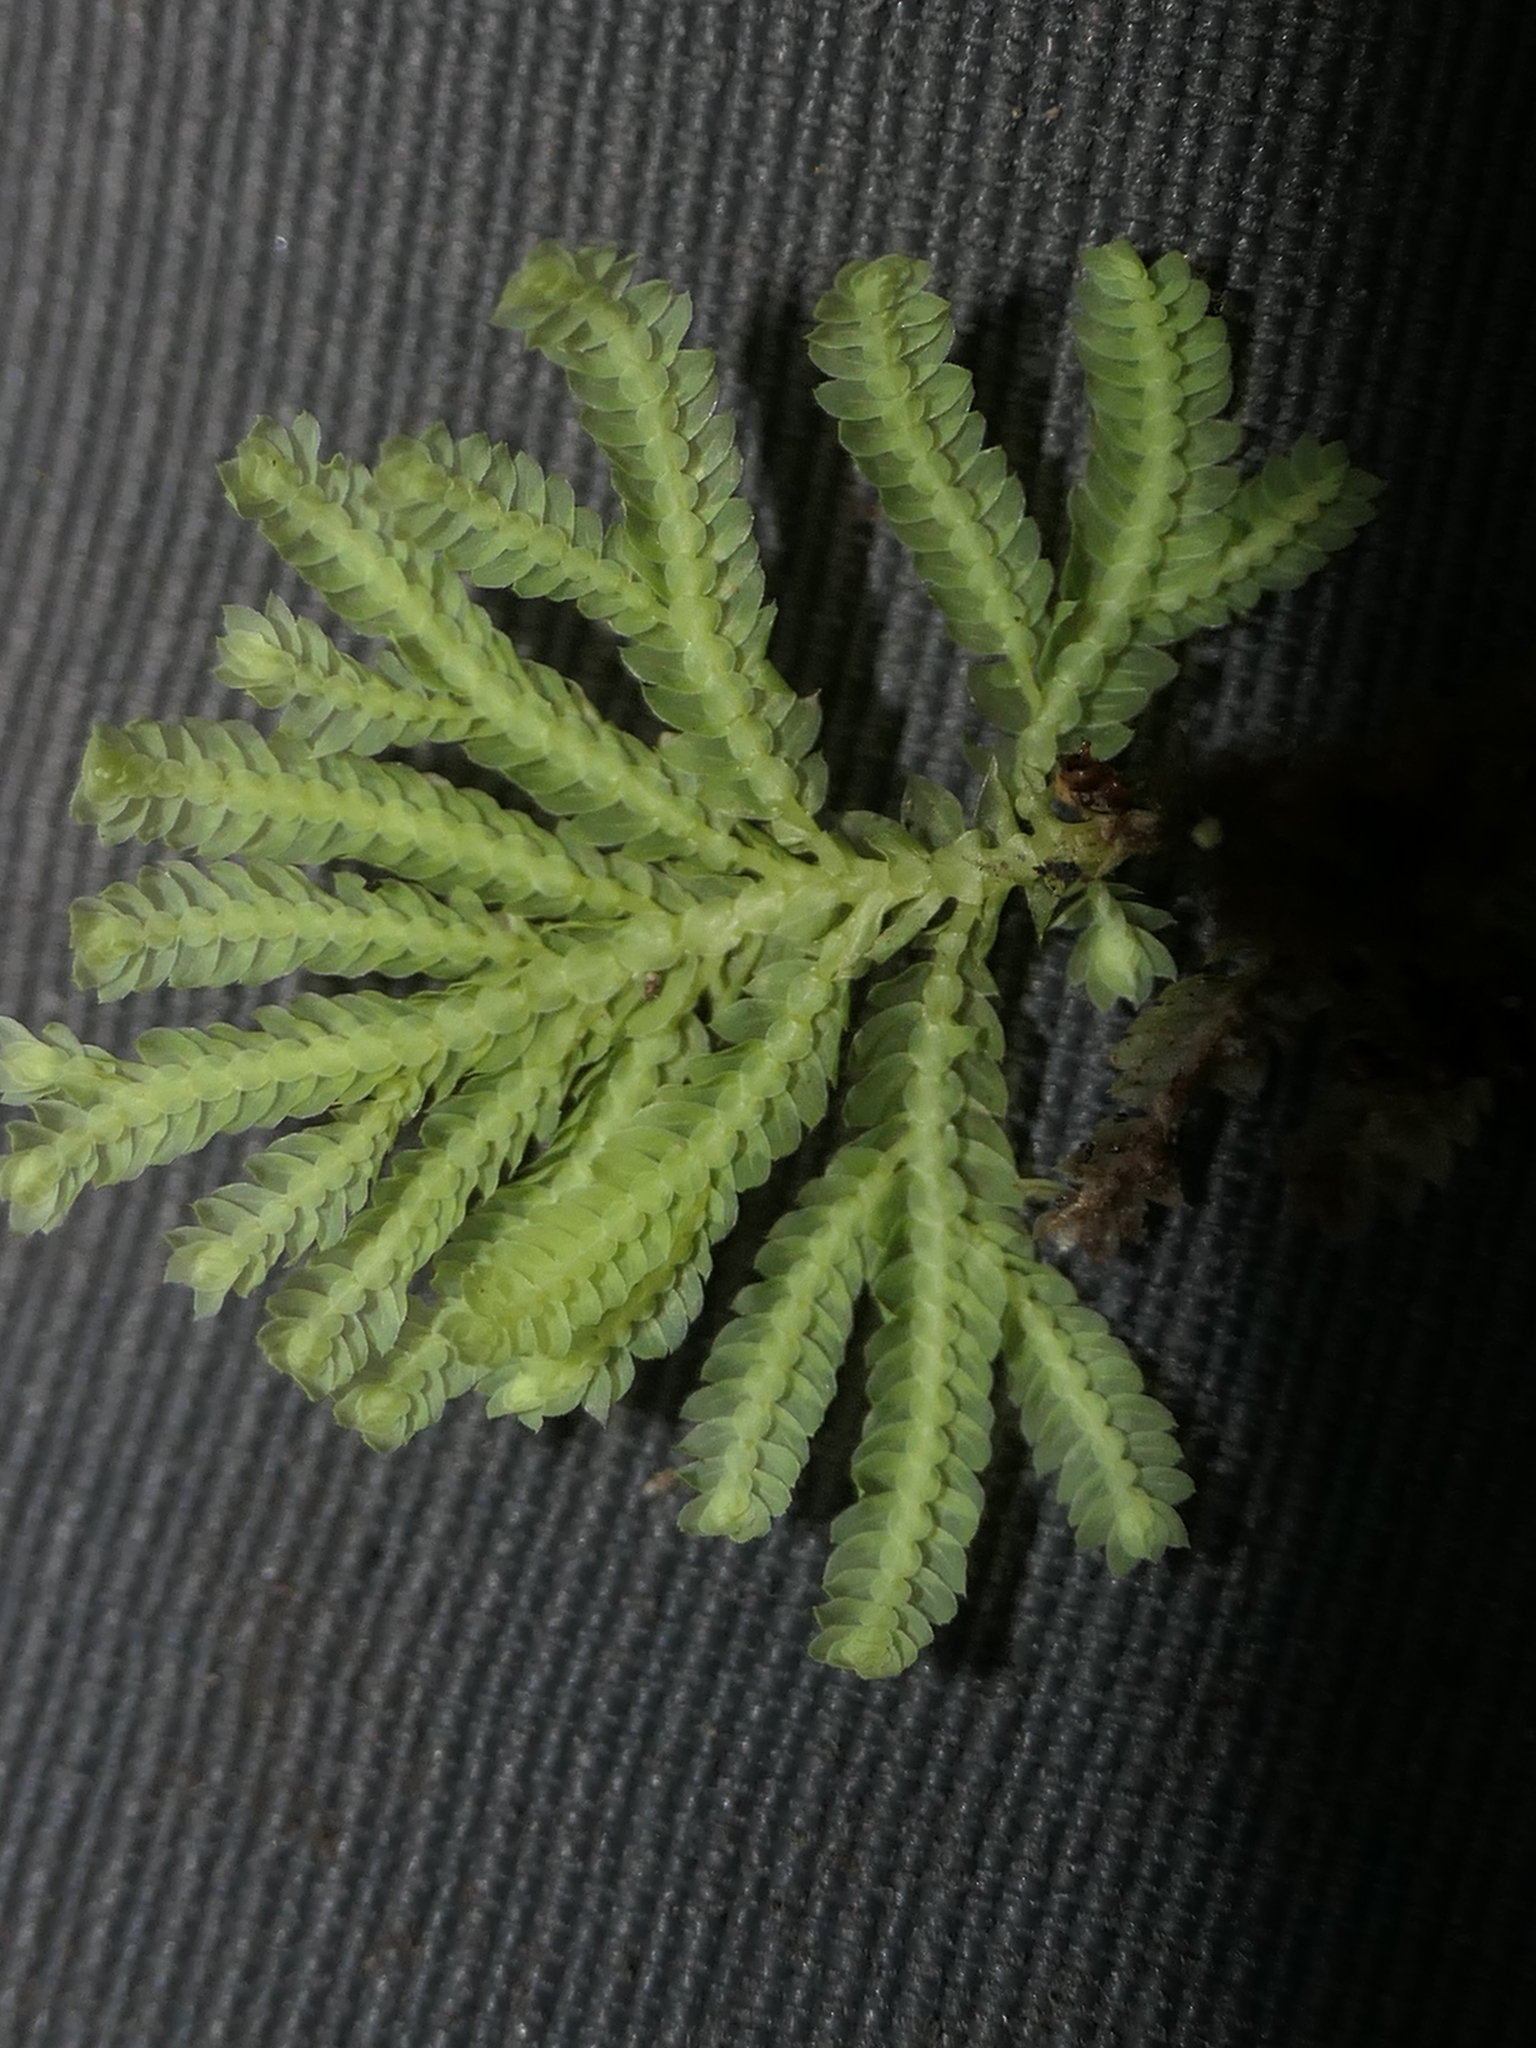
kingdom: Plantae
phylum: Bryophyta
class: Bryopsida
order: Hypopterygiales
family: Hypopterygiaceae
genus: Hypopterygium
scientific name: Hypopterygium tamarisci
